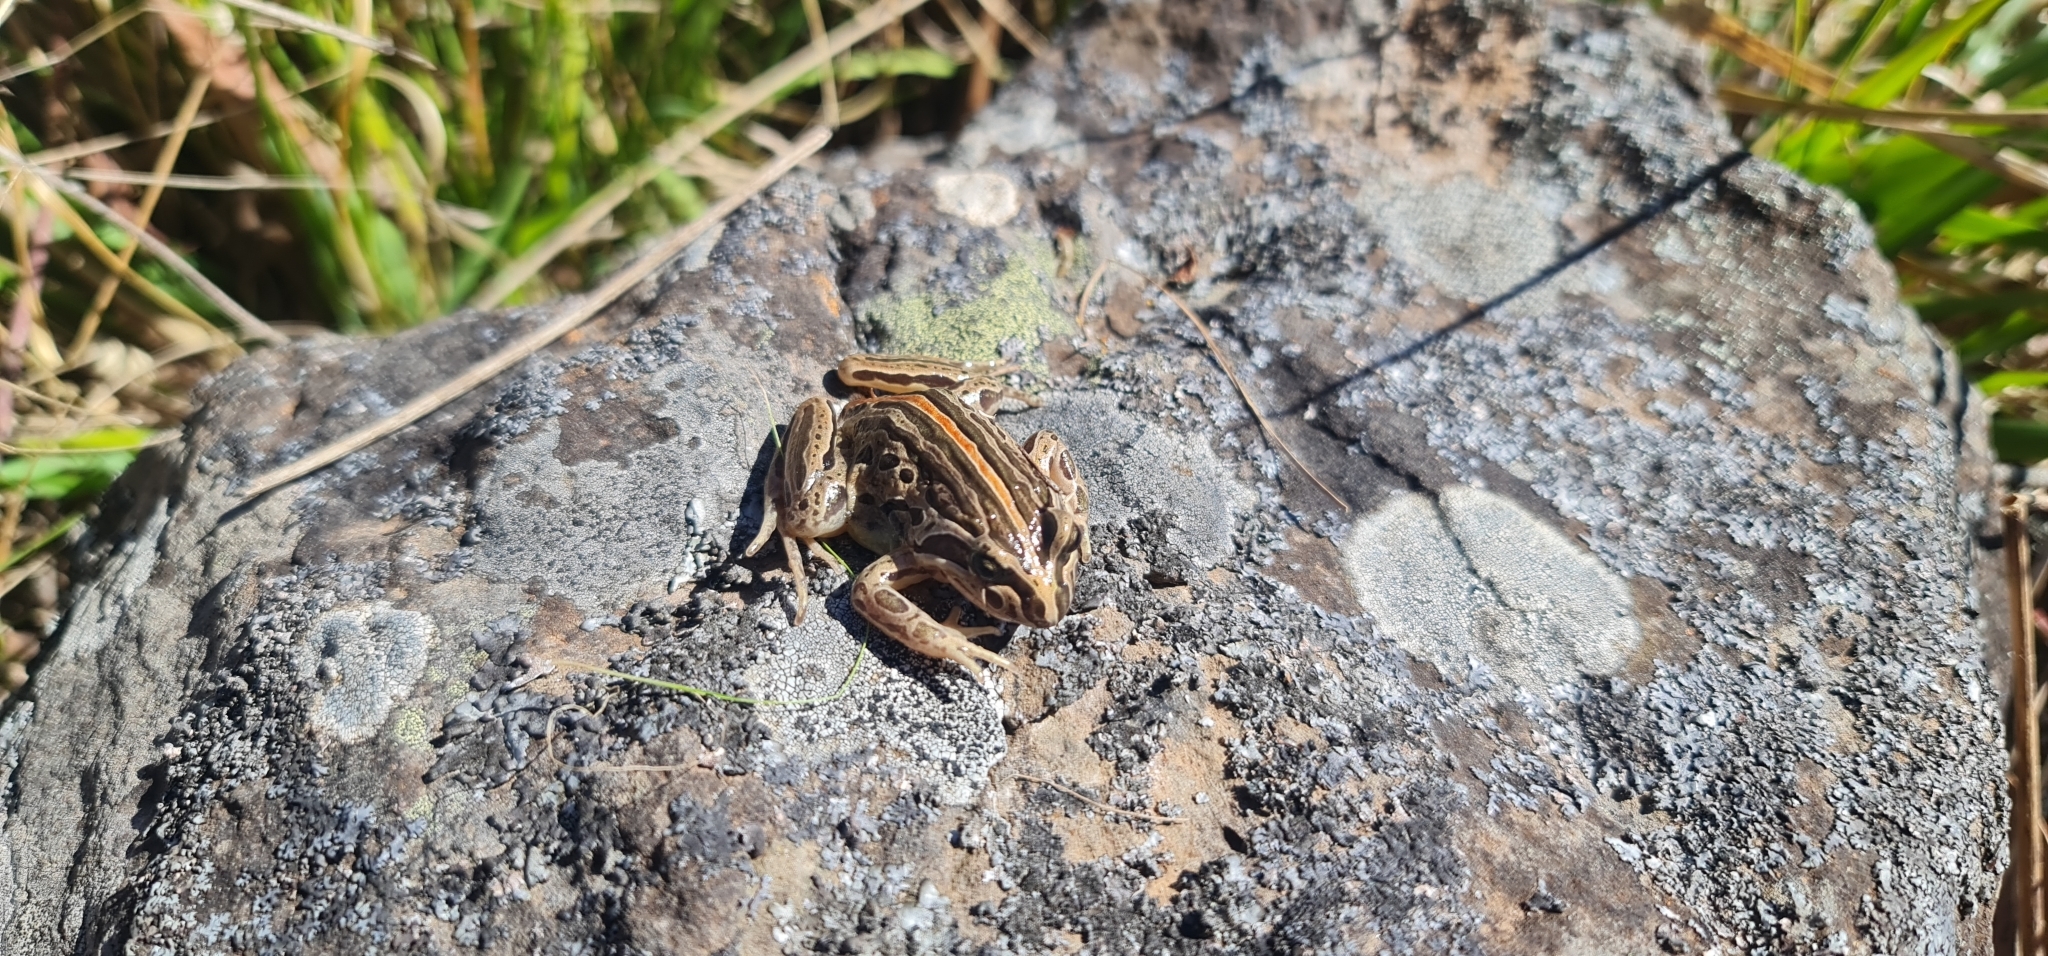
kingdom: Animalia
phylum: Chordata
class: Amphibia
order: Anura
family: Limnodynastidae
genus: Limnodynastes
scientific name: Limnodynastes peronii
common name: Brown frog
